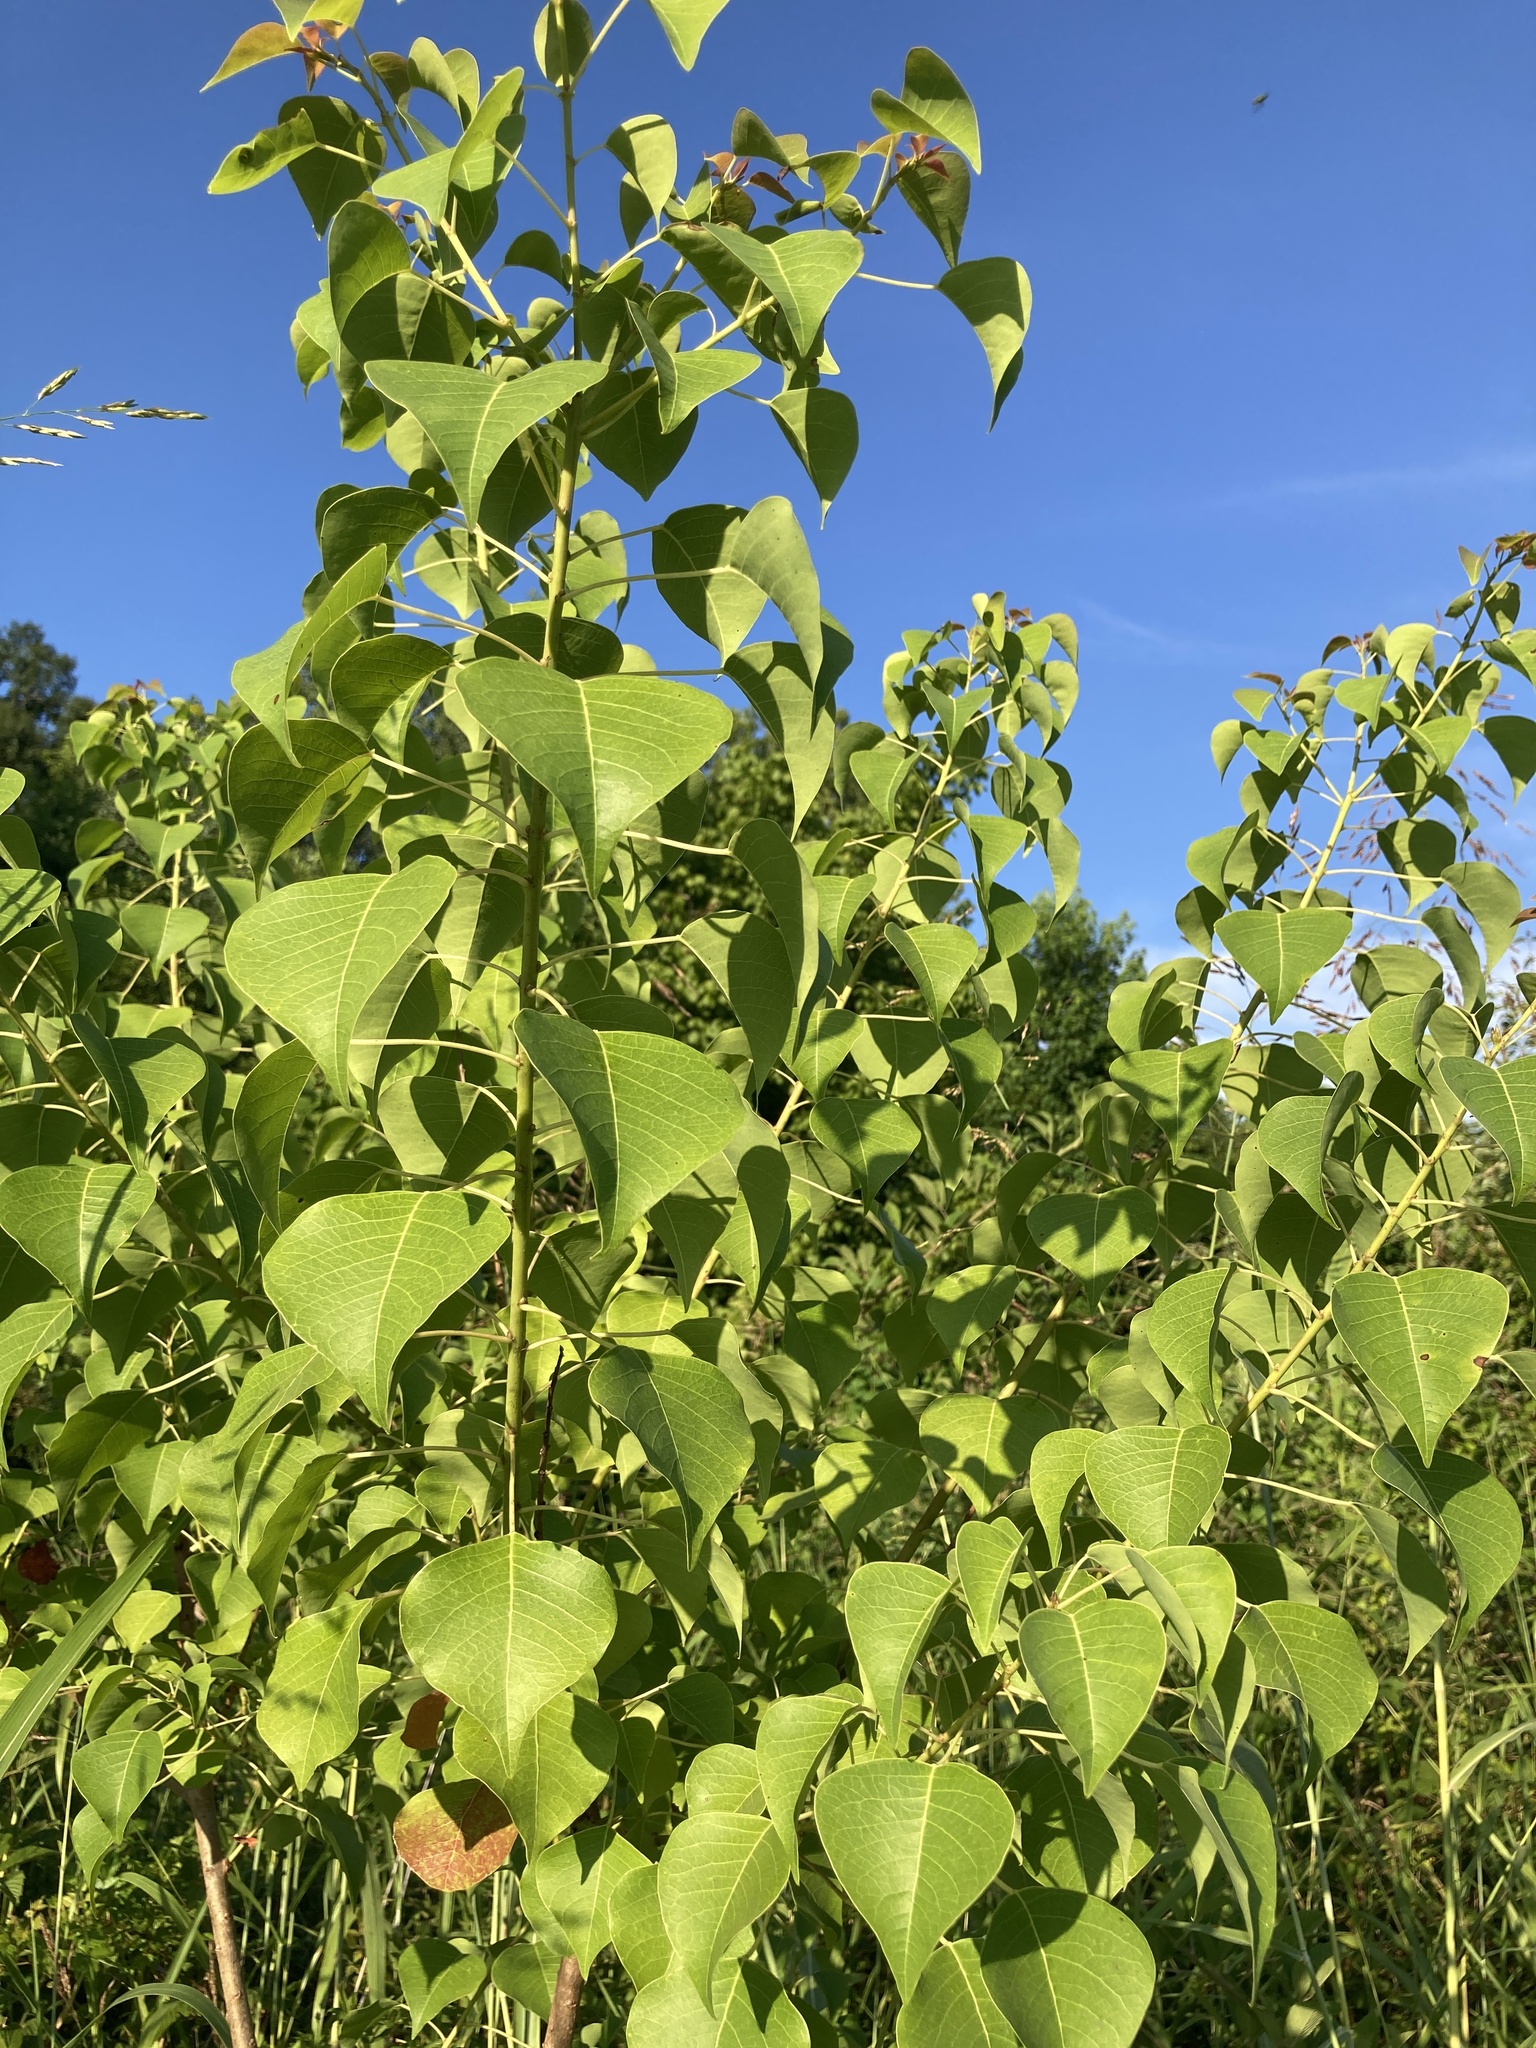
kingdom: Plantae
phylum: Tracheophyta
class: Magnoliopsida
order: Malpighiales
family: Euphorbiaceae
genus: Triadica
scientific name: Triadica sebifera
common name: Chinese tallow
